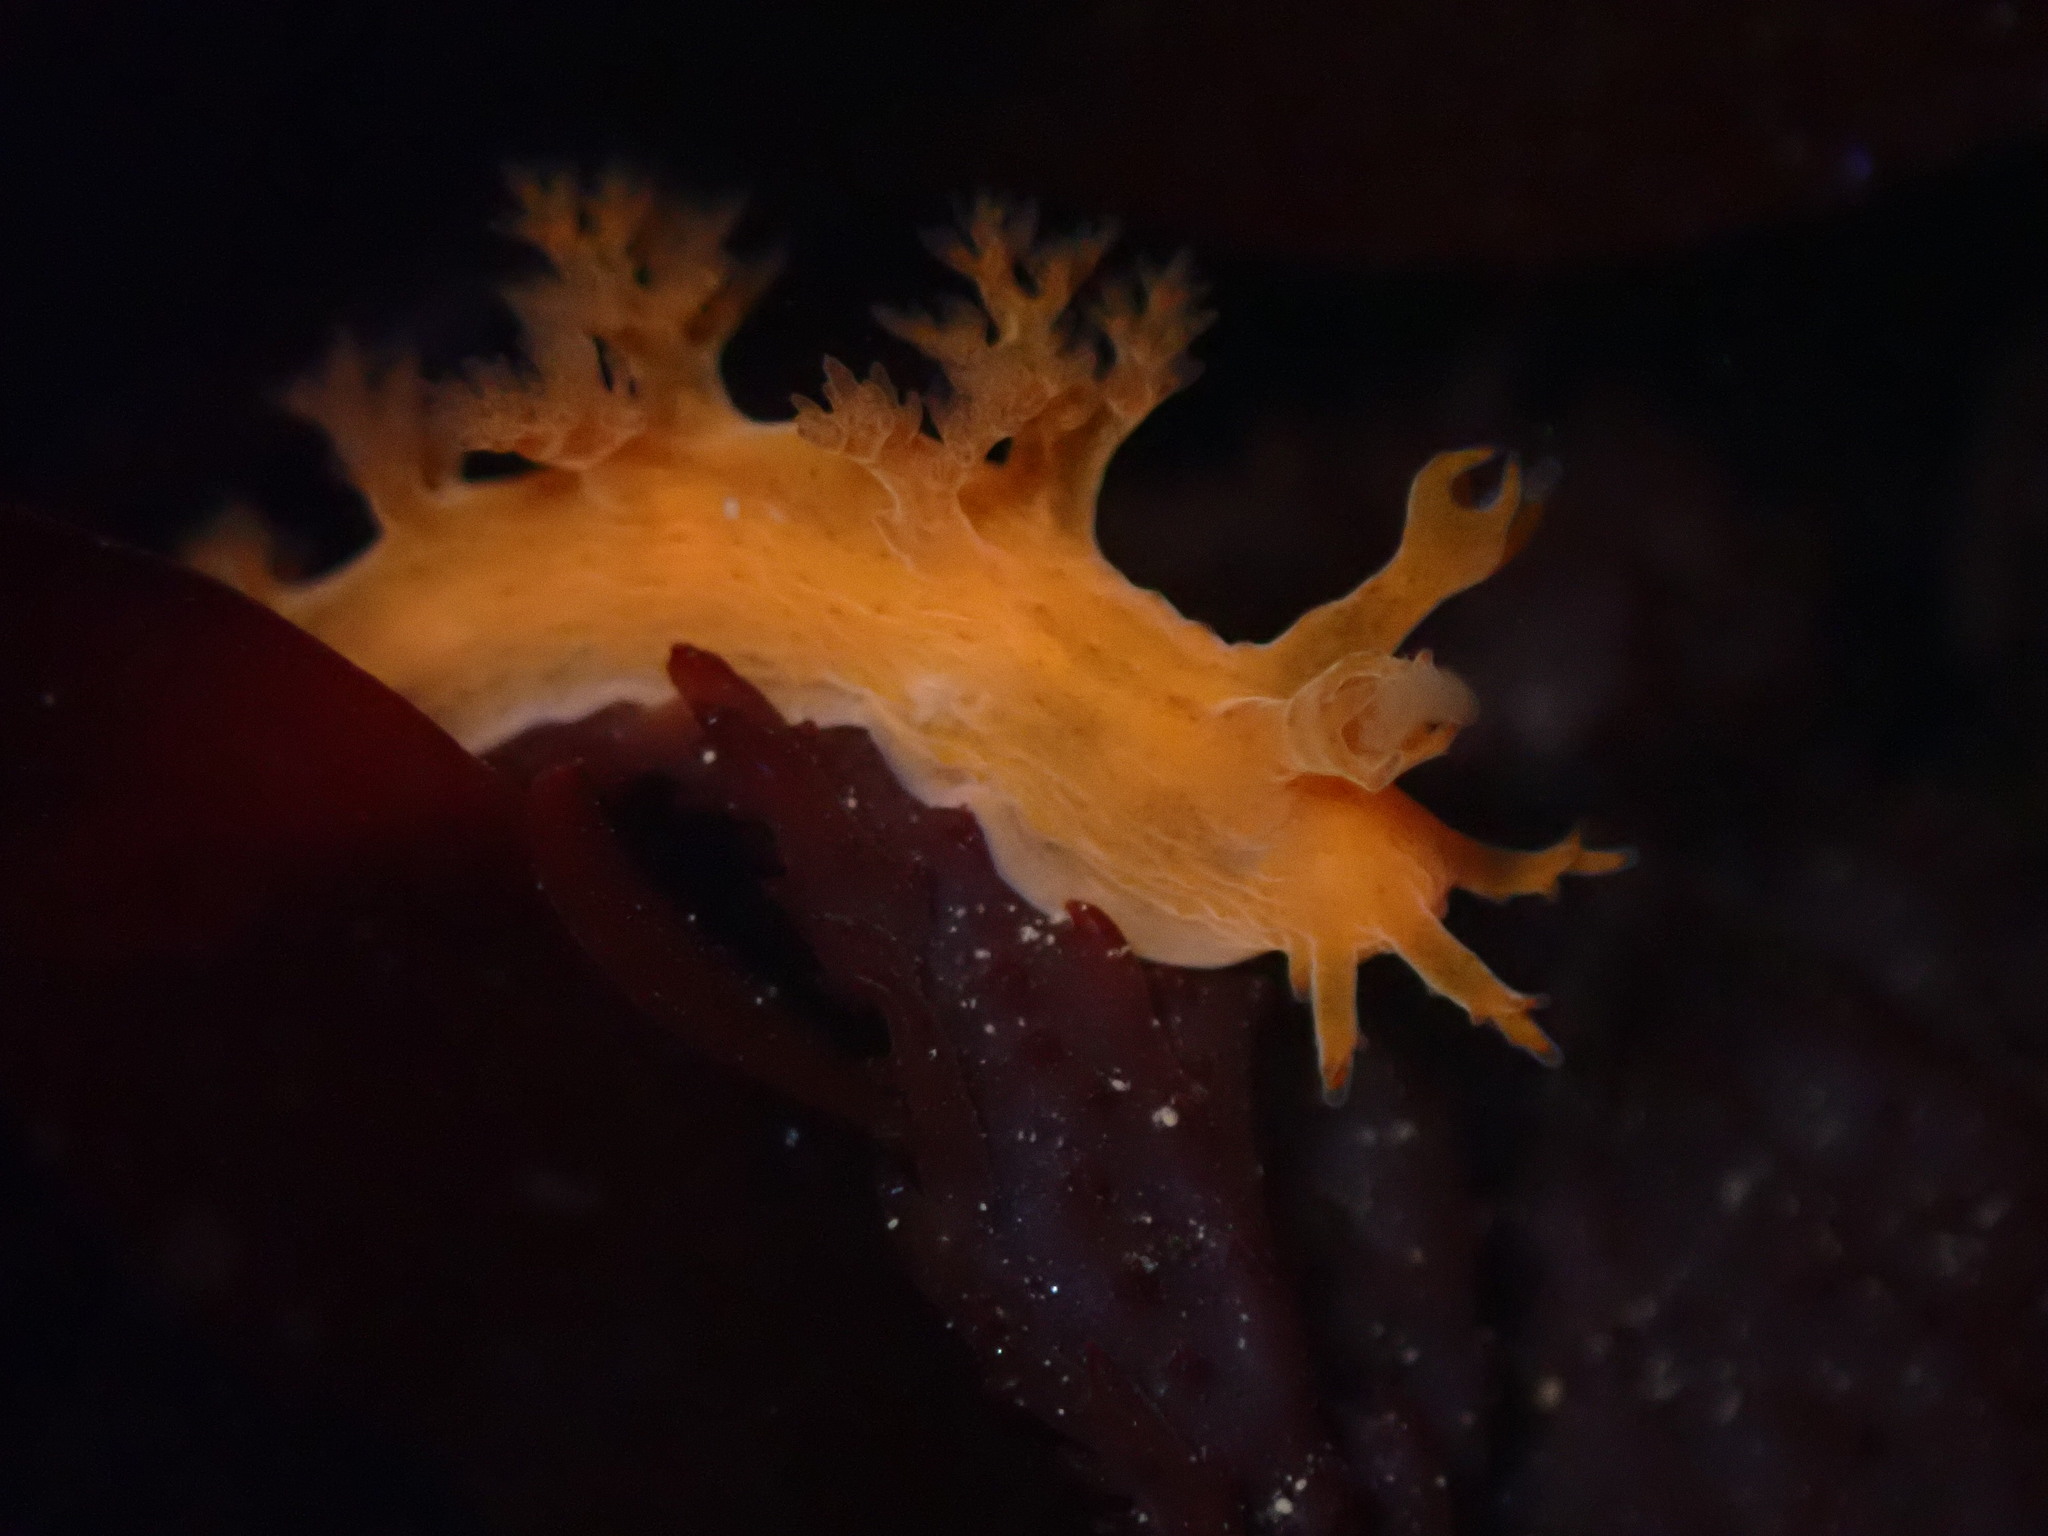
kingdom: Animalia
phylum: Mollusca
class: Gastropoda
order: Nudibranchia
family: Dendronotidae
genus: Dendronotus
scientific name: Dendronotus subramosus
